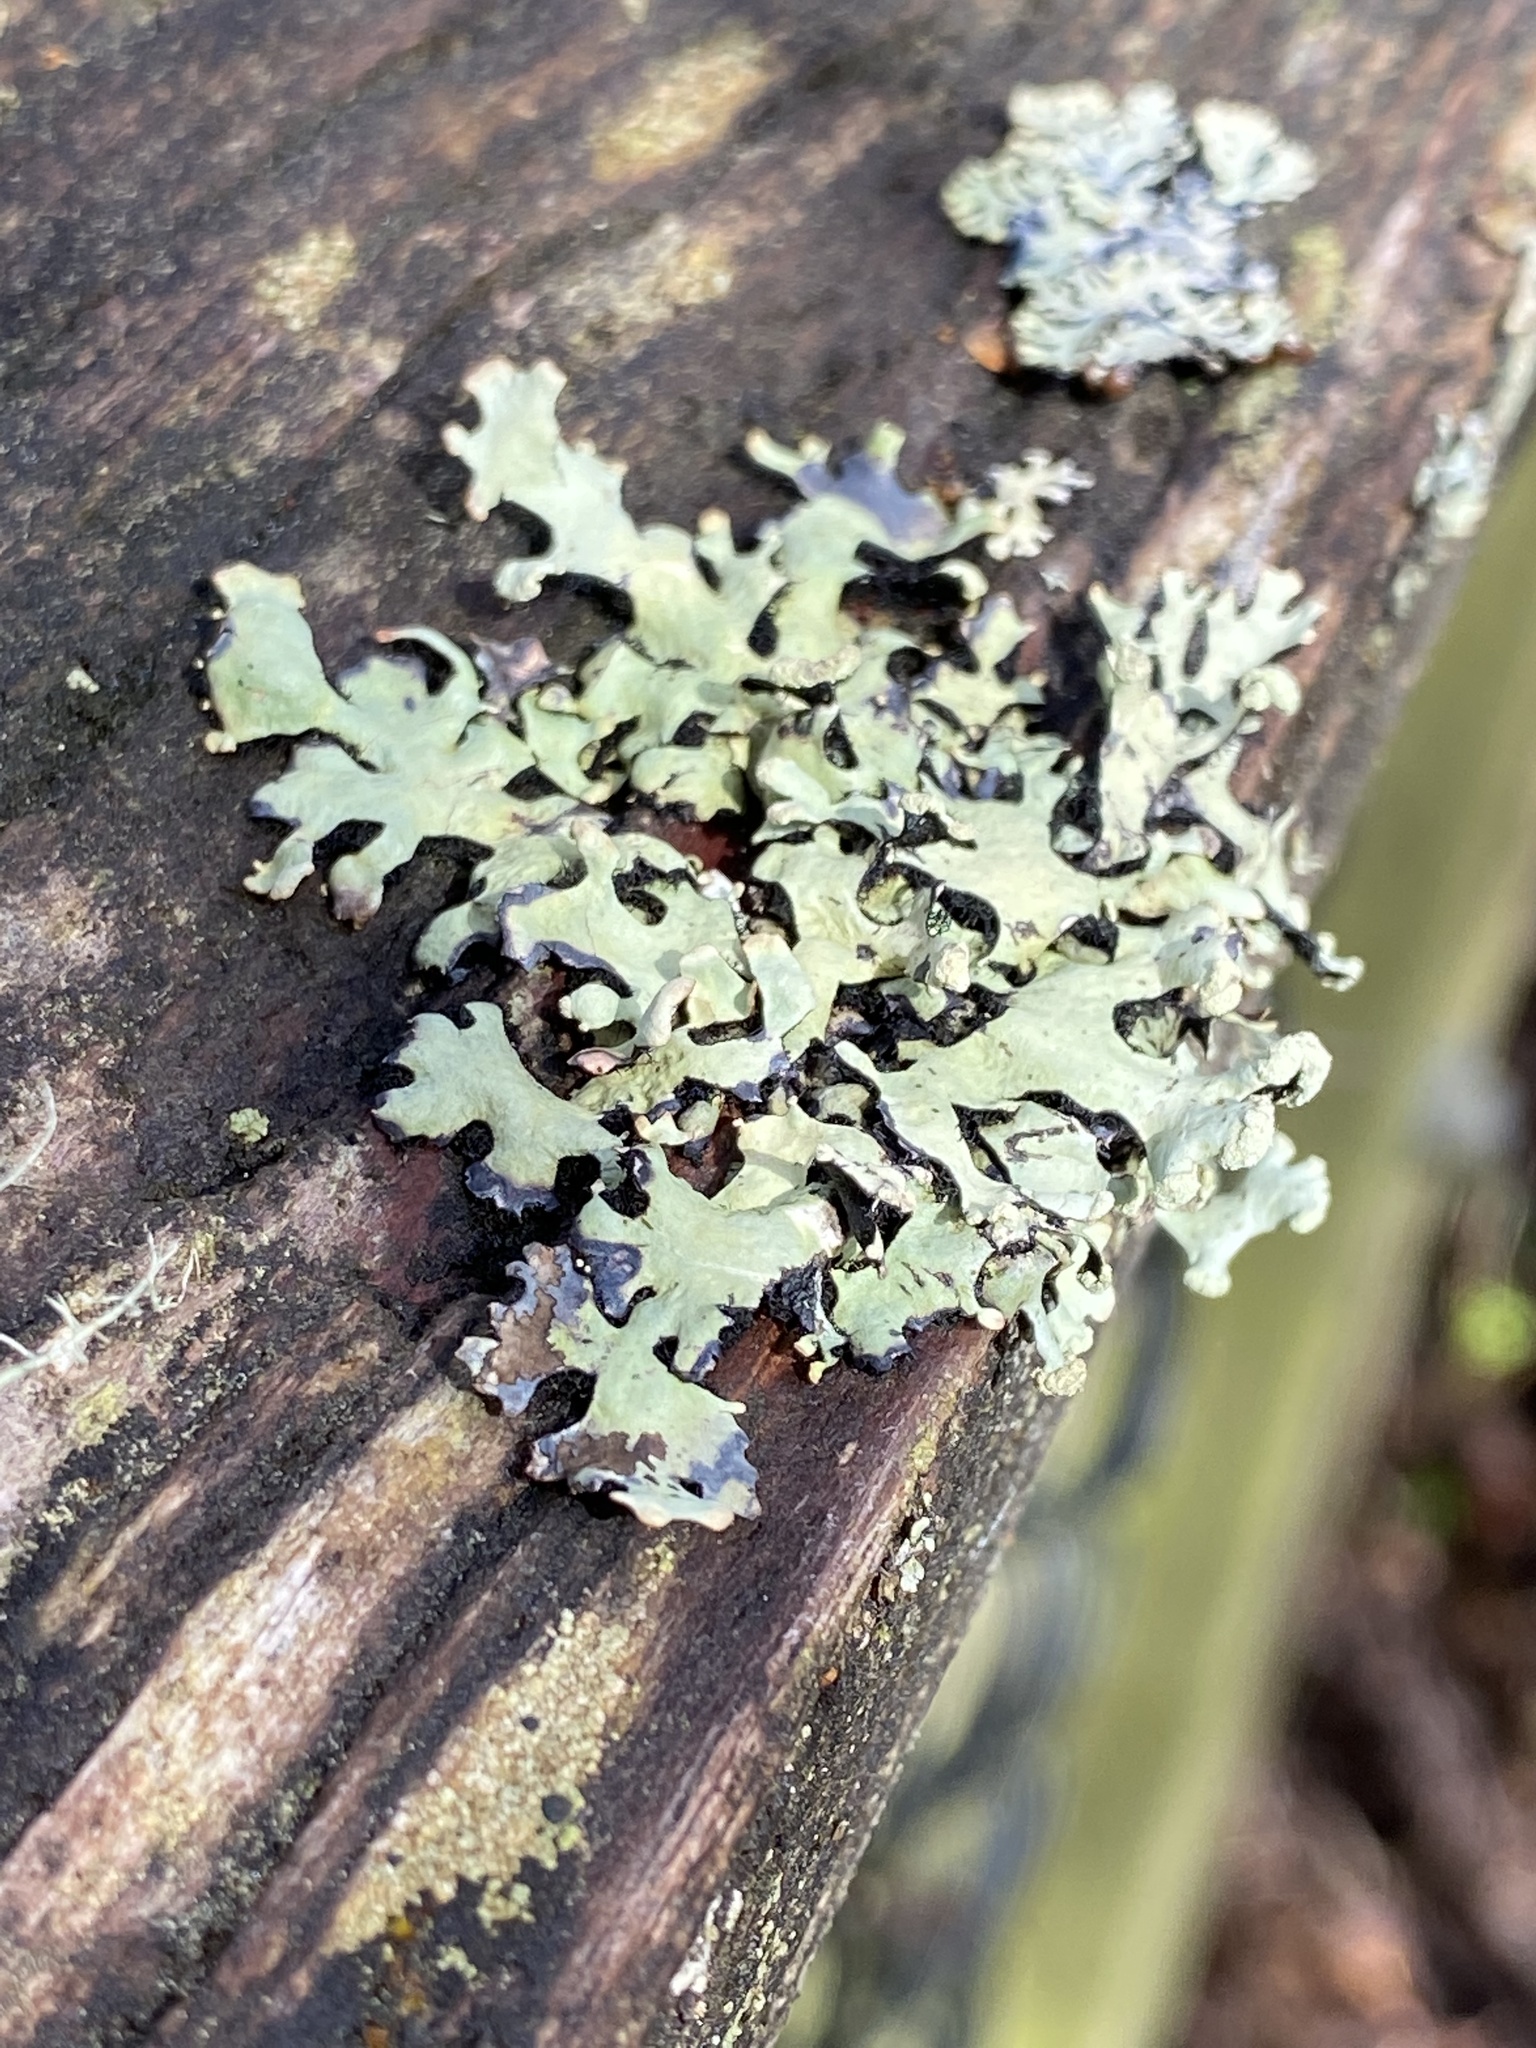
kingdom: Fungi
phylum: Ascomycota
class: Lecanoromycetes
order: Lecanorales
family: Parmeliaceae
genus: Hypotrachyna
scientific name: Hypotrachyna sinuosa
